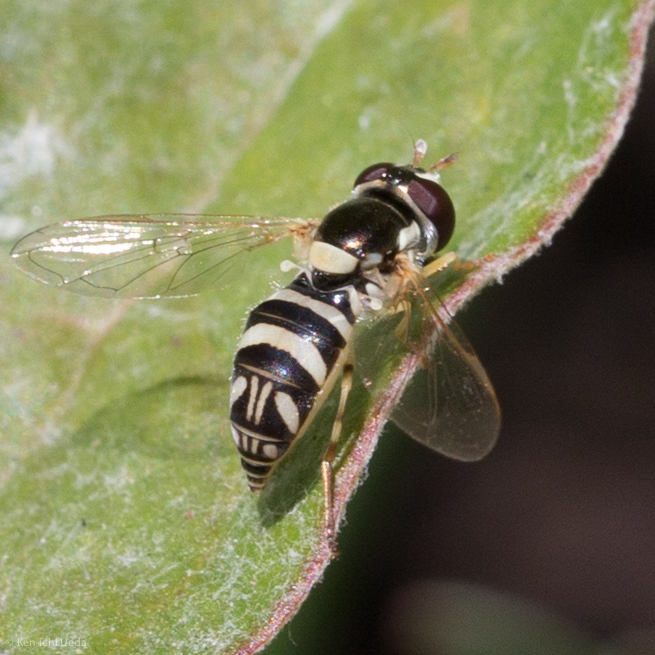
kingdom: Animalia
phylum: Arthropoda
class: Insecta
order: Diptera
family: Syrphidae
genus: Allograpta
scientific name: Allograpta exotica
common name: Syrphid fly
